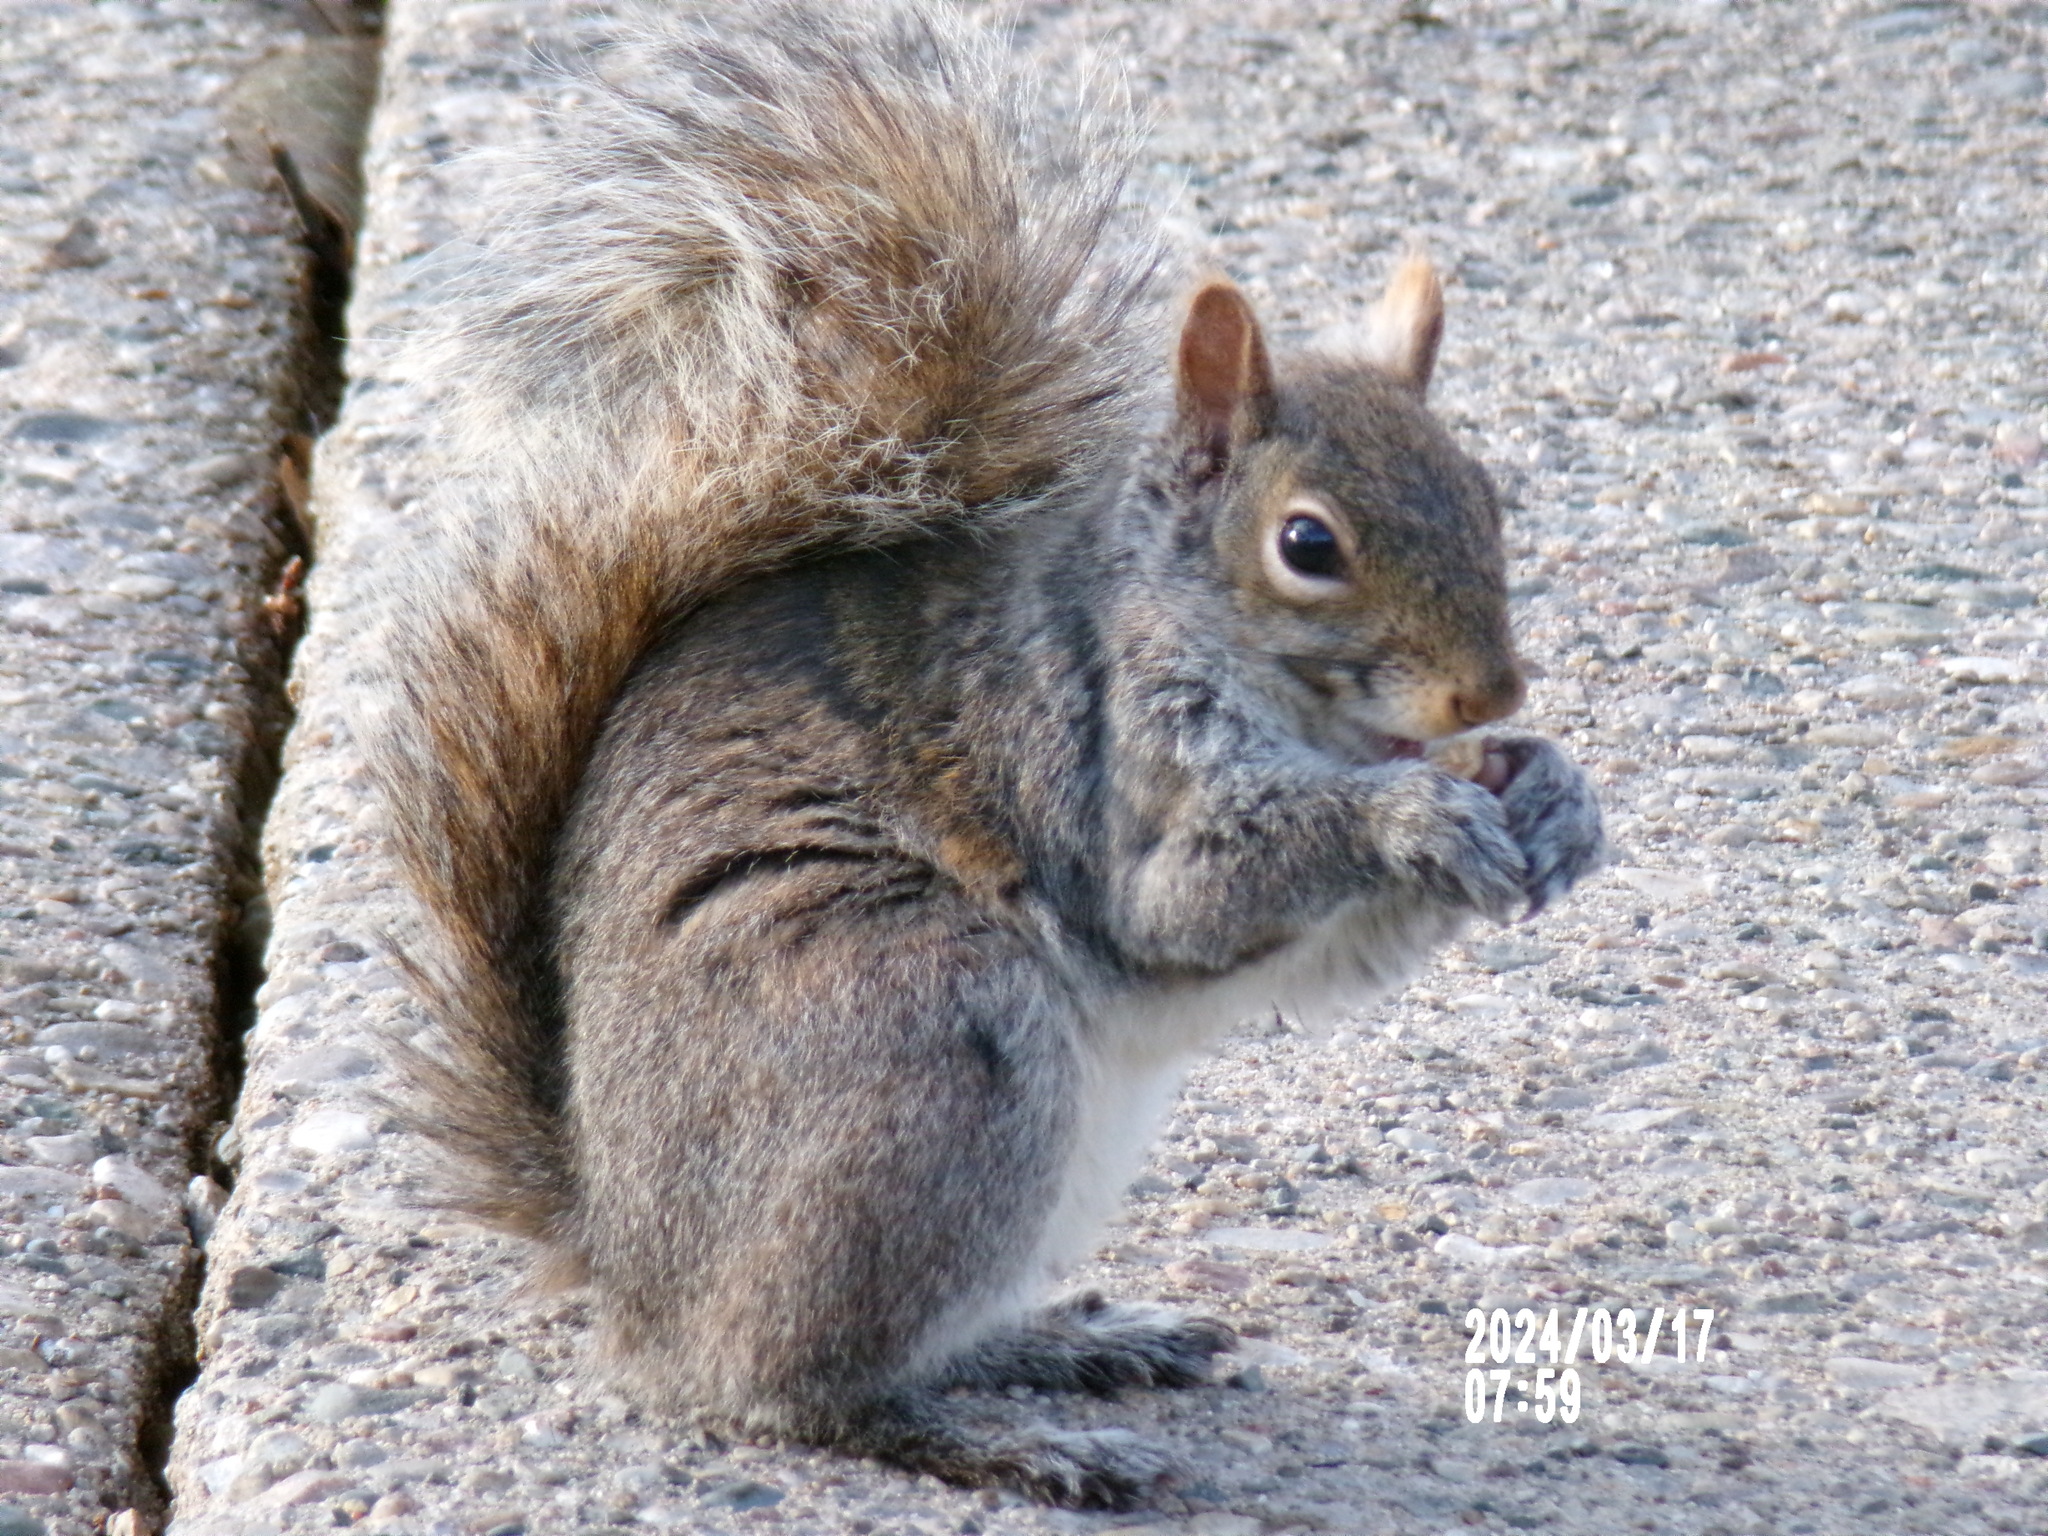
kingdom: Animalia
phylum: Chordata
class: Mammalia
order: Rodentia
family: Sciuridae
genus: Sciurus
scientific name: Sciurus carolinensis
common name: Eastern gray squirrel
